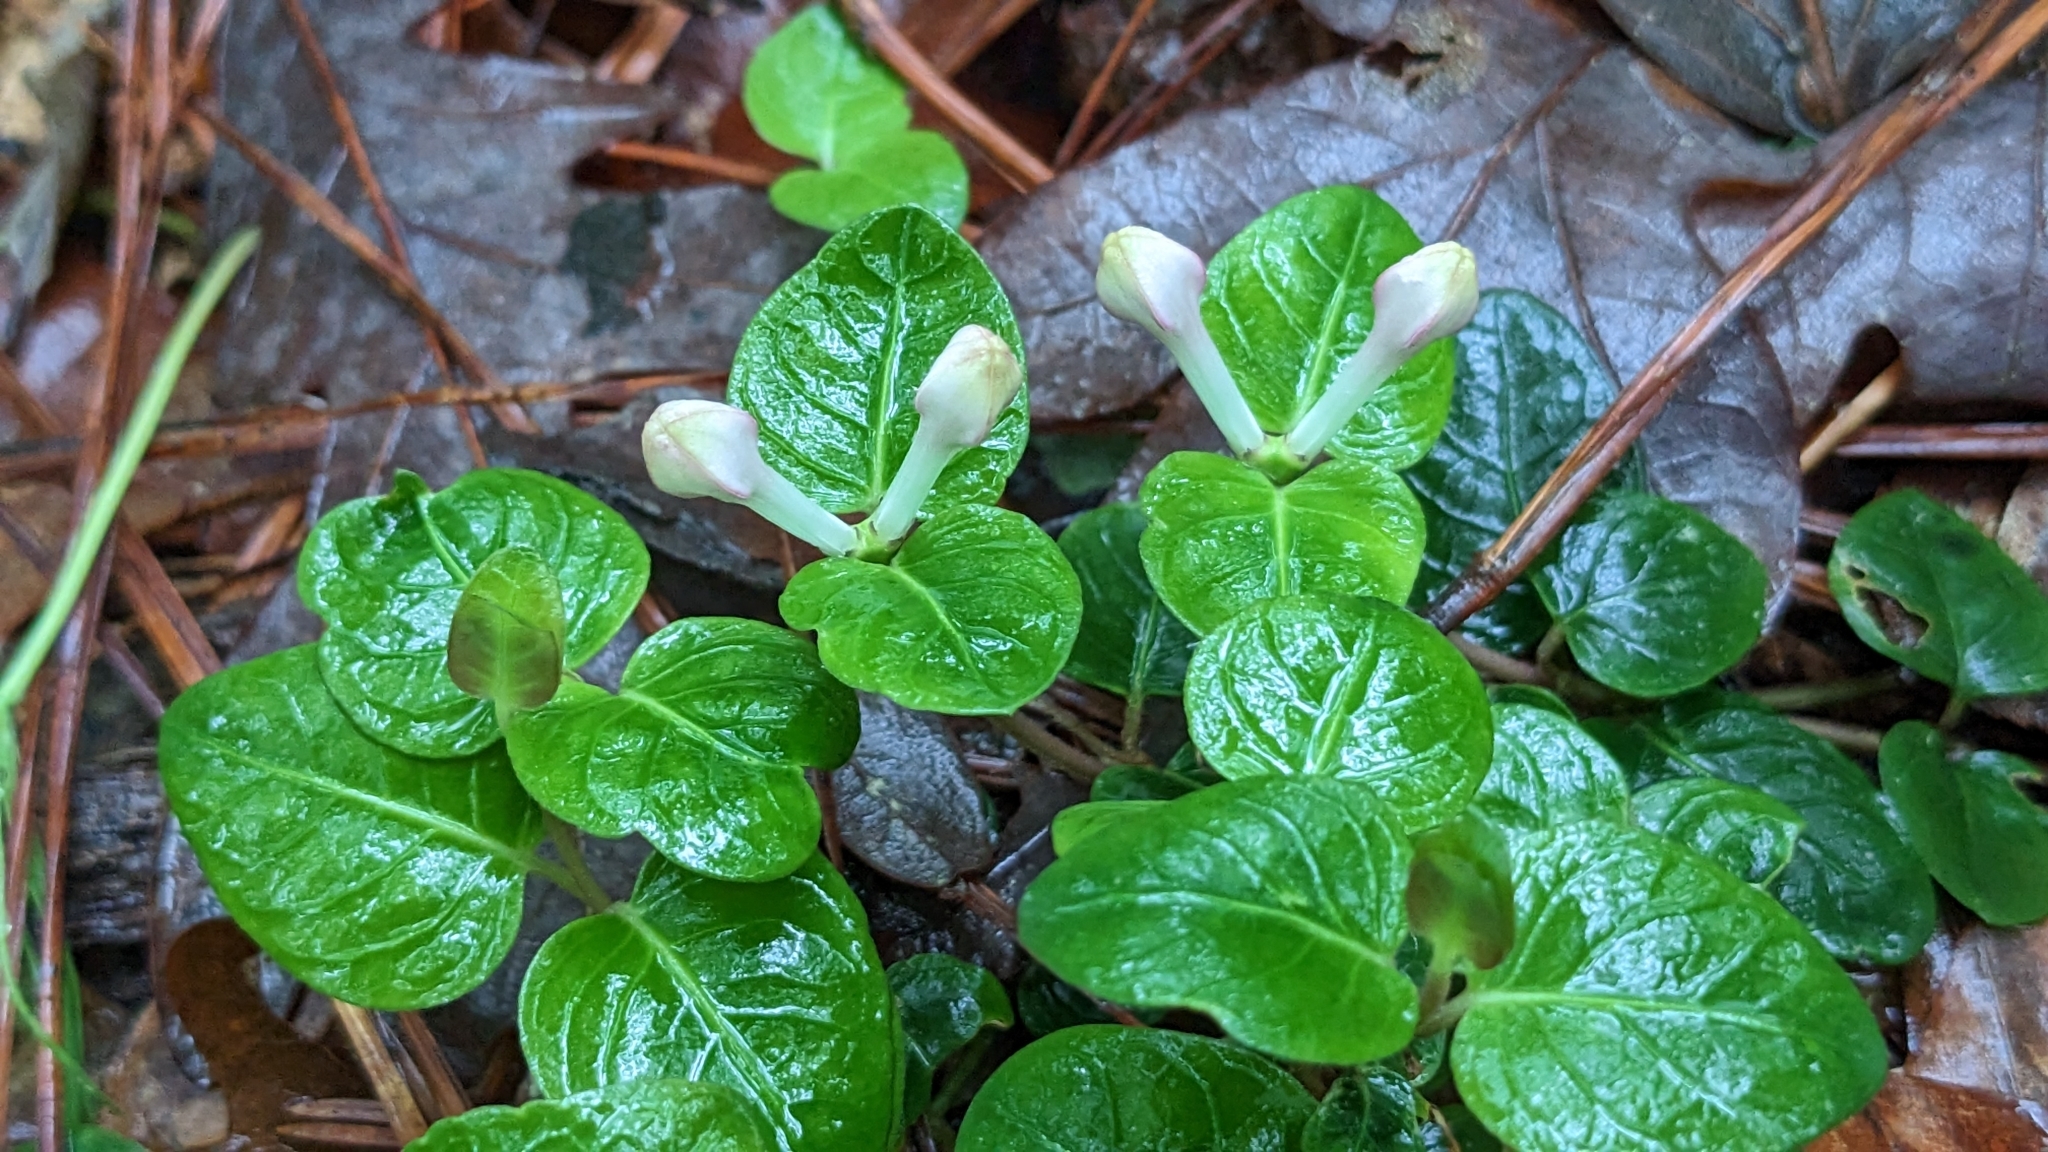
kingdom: Plantae
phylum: Tracheophyta
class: Magnoliopsida
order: Gentianales
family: Rubiaceae
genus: Mitchella
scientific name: Mitchella repens
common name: Partridge-berry
